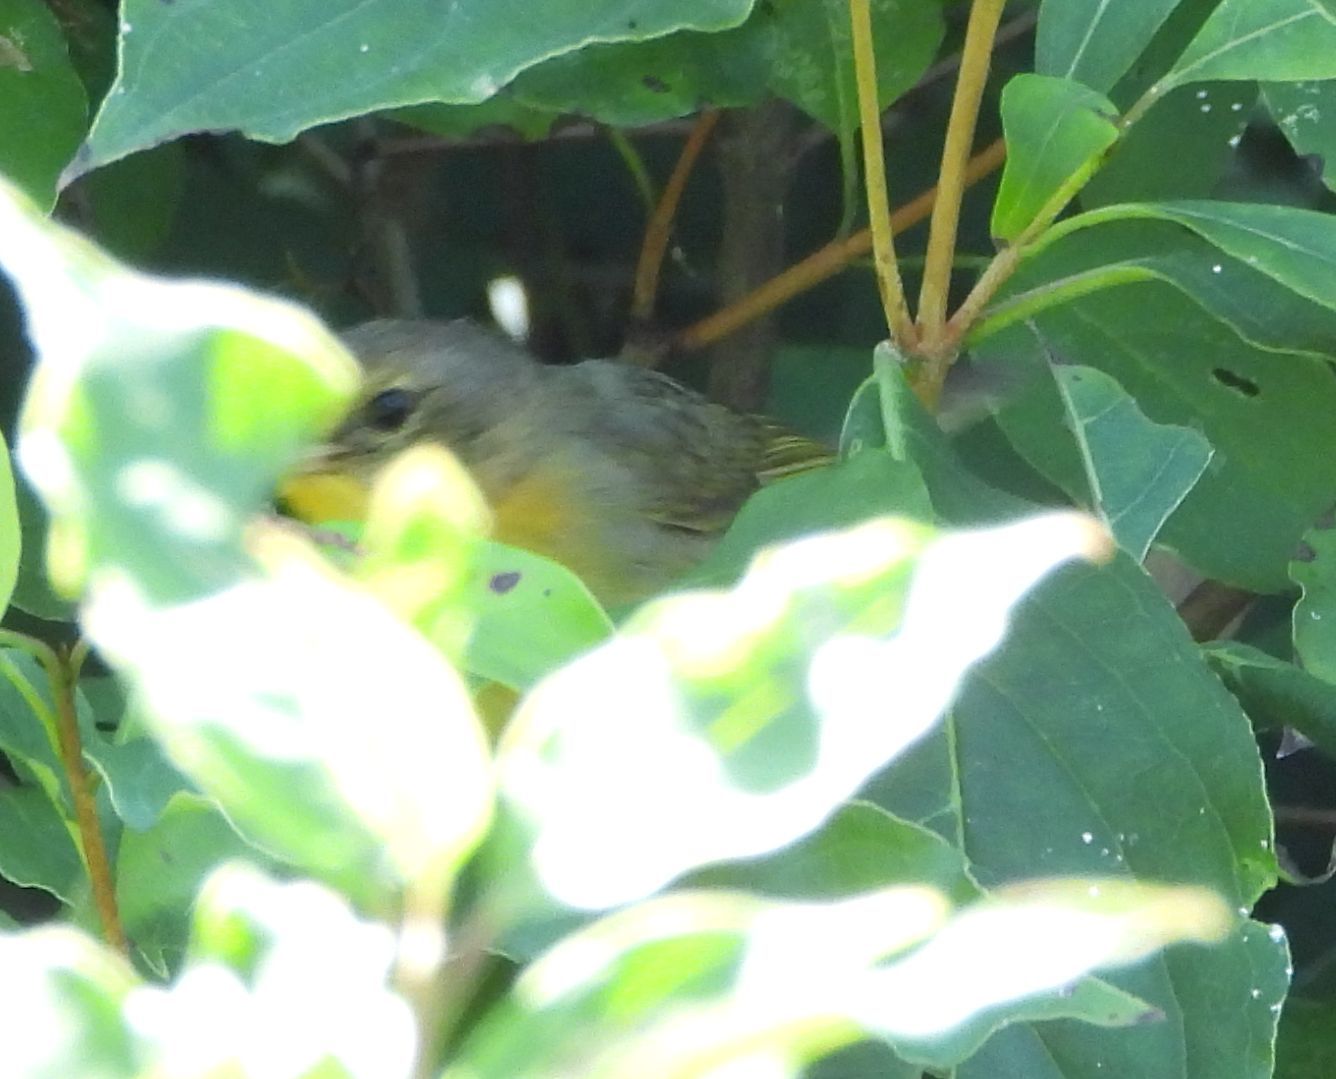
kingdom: Animalia
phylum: Chordata
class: Aves
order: Passeriformes
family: Parulidae
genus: Geothlypis
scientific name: Geothlypis trichas
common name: Common yellowthroat
